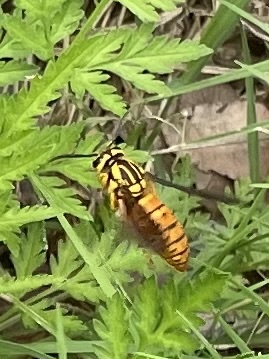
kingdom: Animalia
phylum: Arthropoda
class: Insecta
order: Hymenoptera
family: Vespidae
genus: Vespula
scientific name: Vespula squamosa
